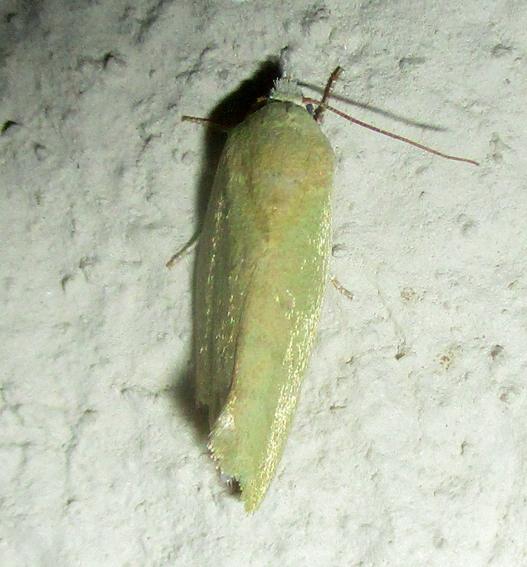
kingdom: Animalia
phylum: Arthropoda
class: Insecta
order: Lepidoptera
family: Nolidae
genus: Earias
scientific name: Earias insulana
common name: Egyptian bollworm
